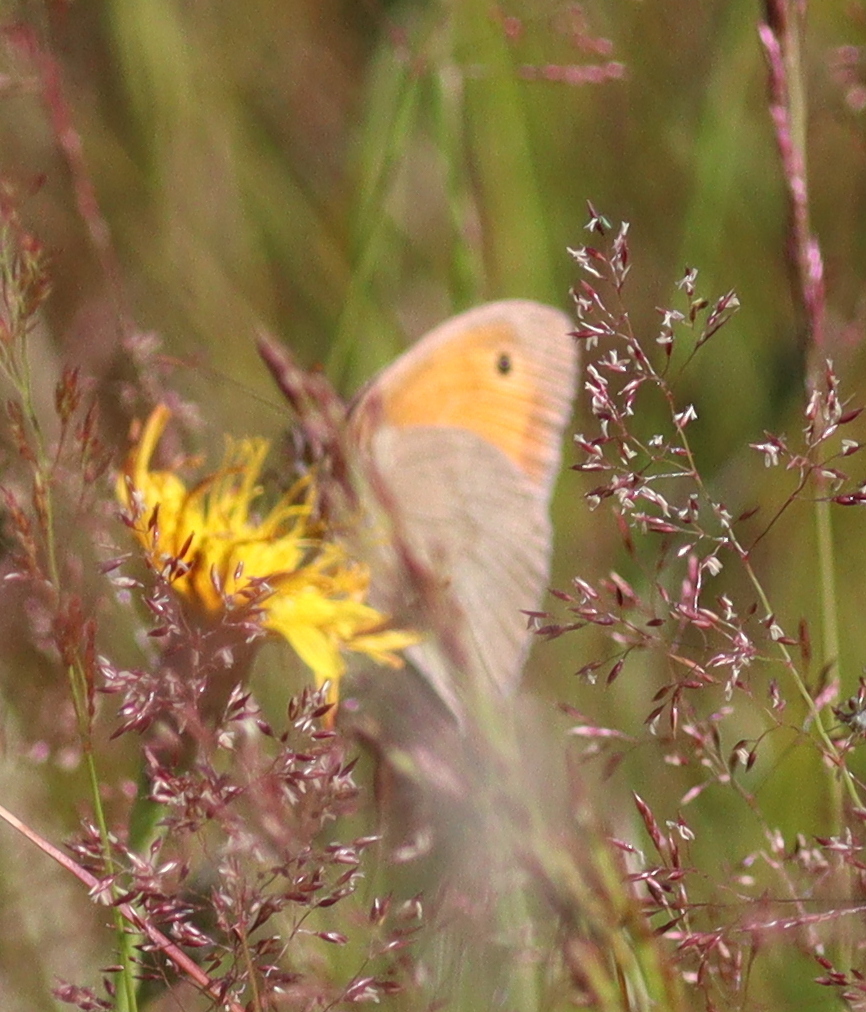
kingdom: Animalia
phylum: Arthropoda
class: Insecta
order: Lepidoptera
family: Nymphalidae
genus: Maniola
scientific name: Maniola jurtina
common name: Meadow brown
